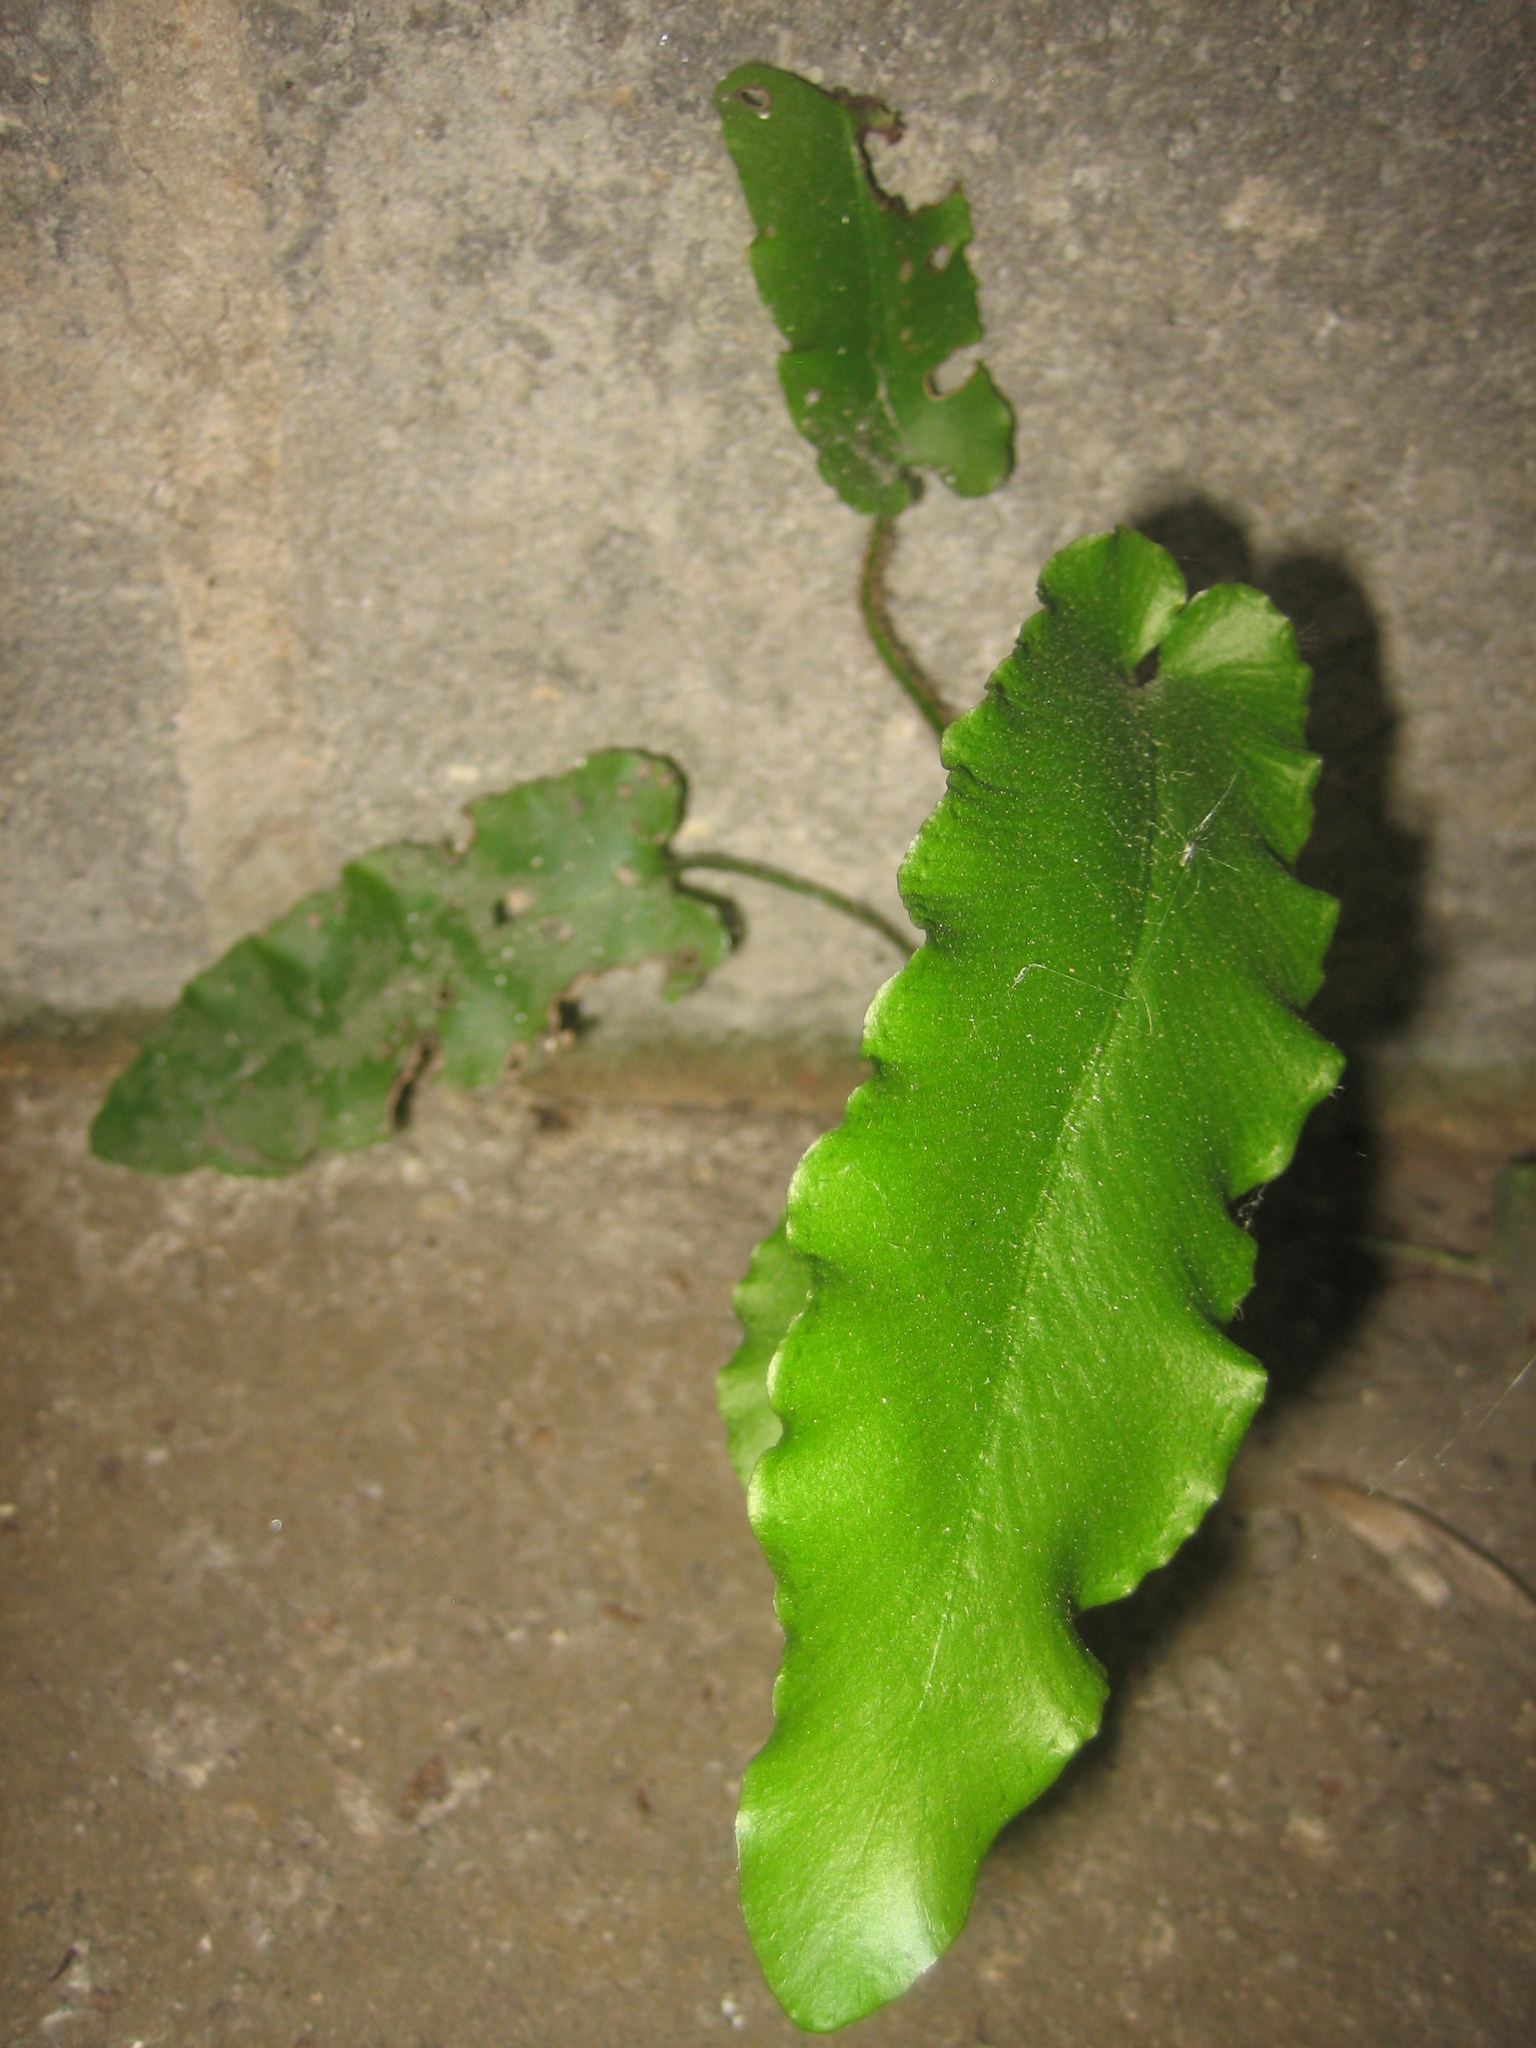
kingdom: Plantae
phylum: Tracheophyta
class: Polypodiopsida
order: Polypodiales
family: Aspleniaceae
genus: Asplenium
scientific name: Asplenium scolopendrium
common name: Hart's-tongue fern
